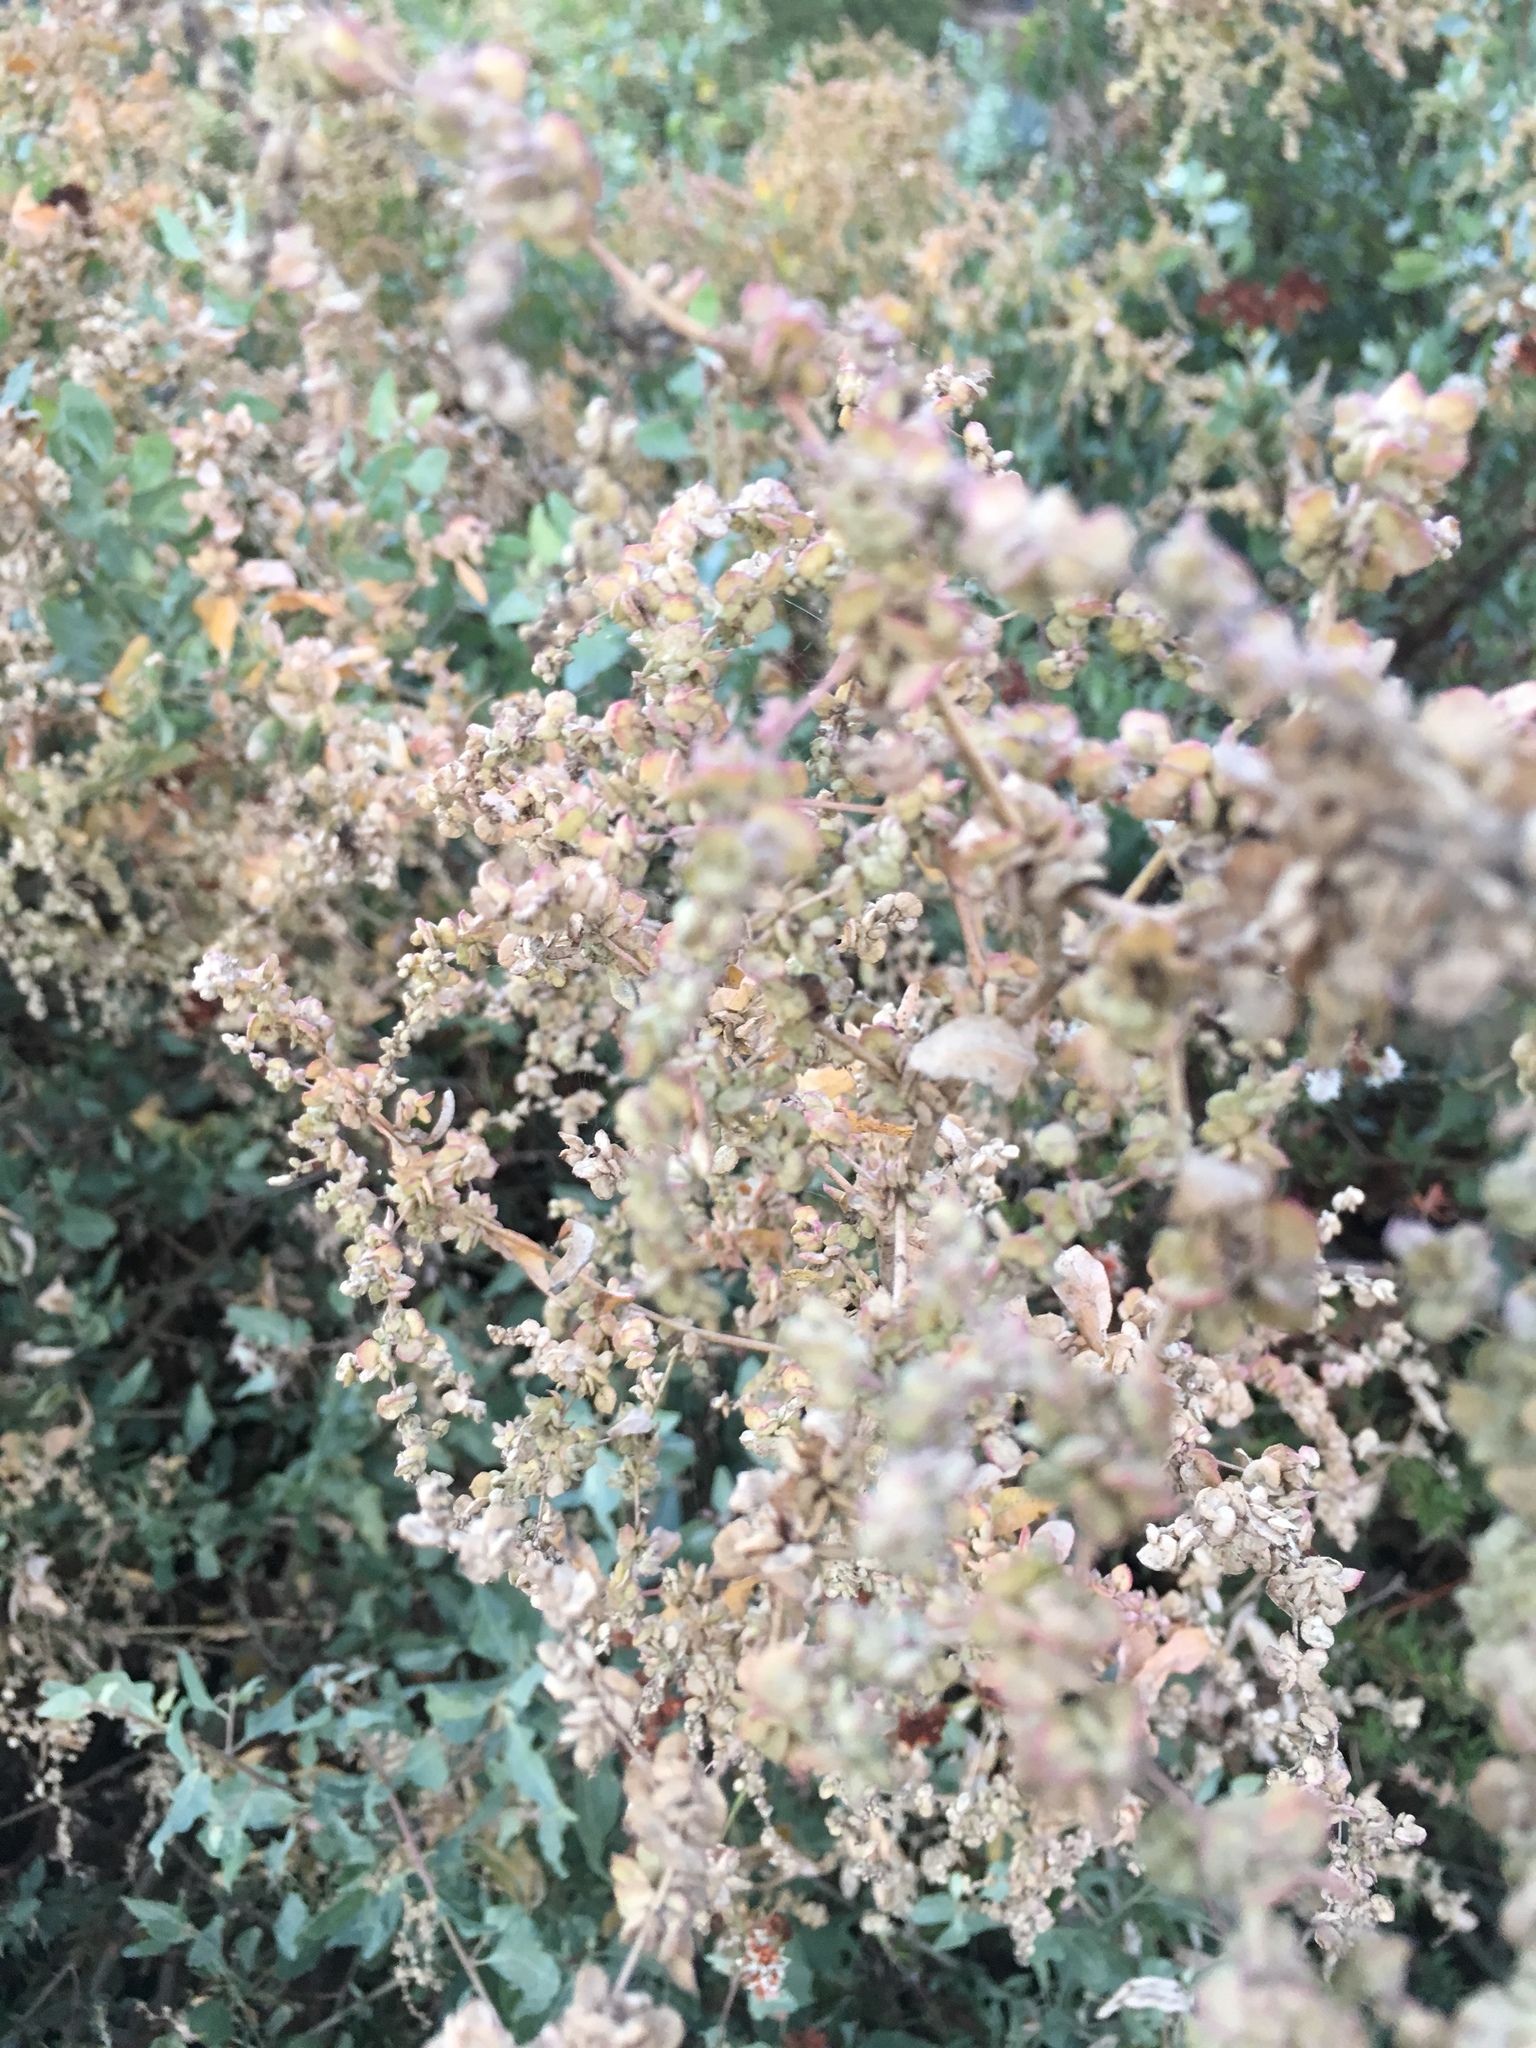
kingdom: Plantae
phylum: Tracheophyta
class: Magnoliopsida
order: Caryophyllales
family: Amaranthaceae
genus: Atriplex
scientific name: Atriplex lentiformis
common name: Big saltbush
